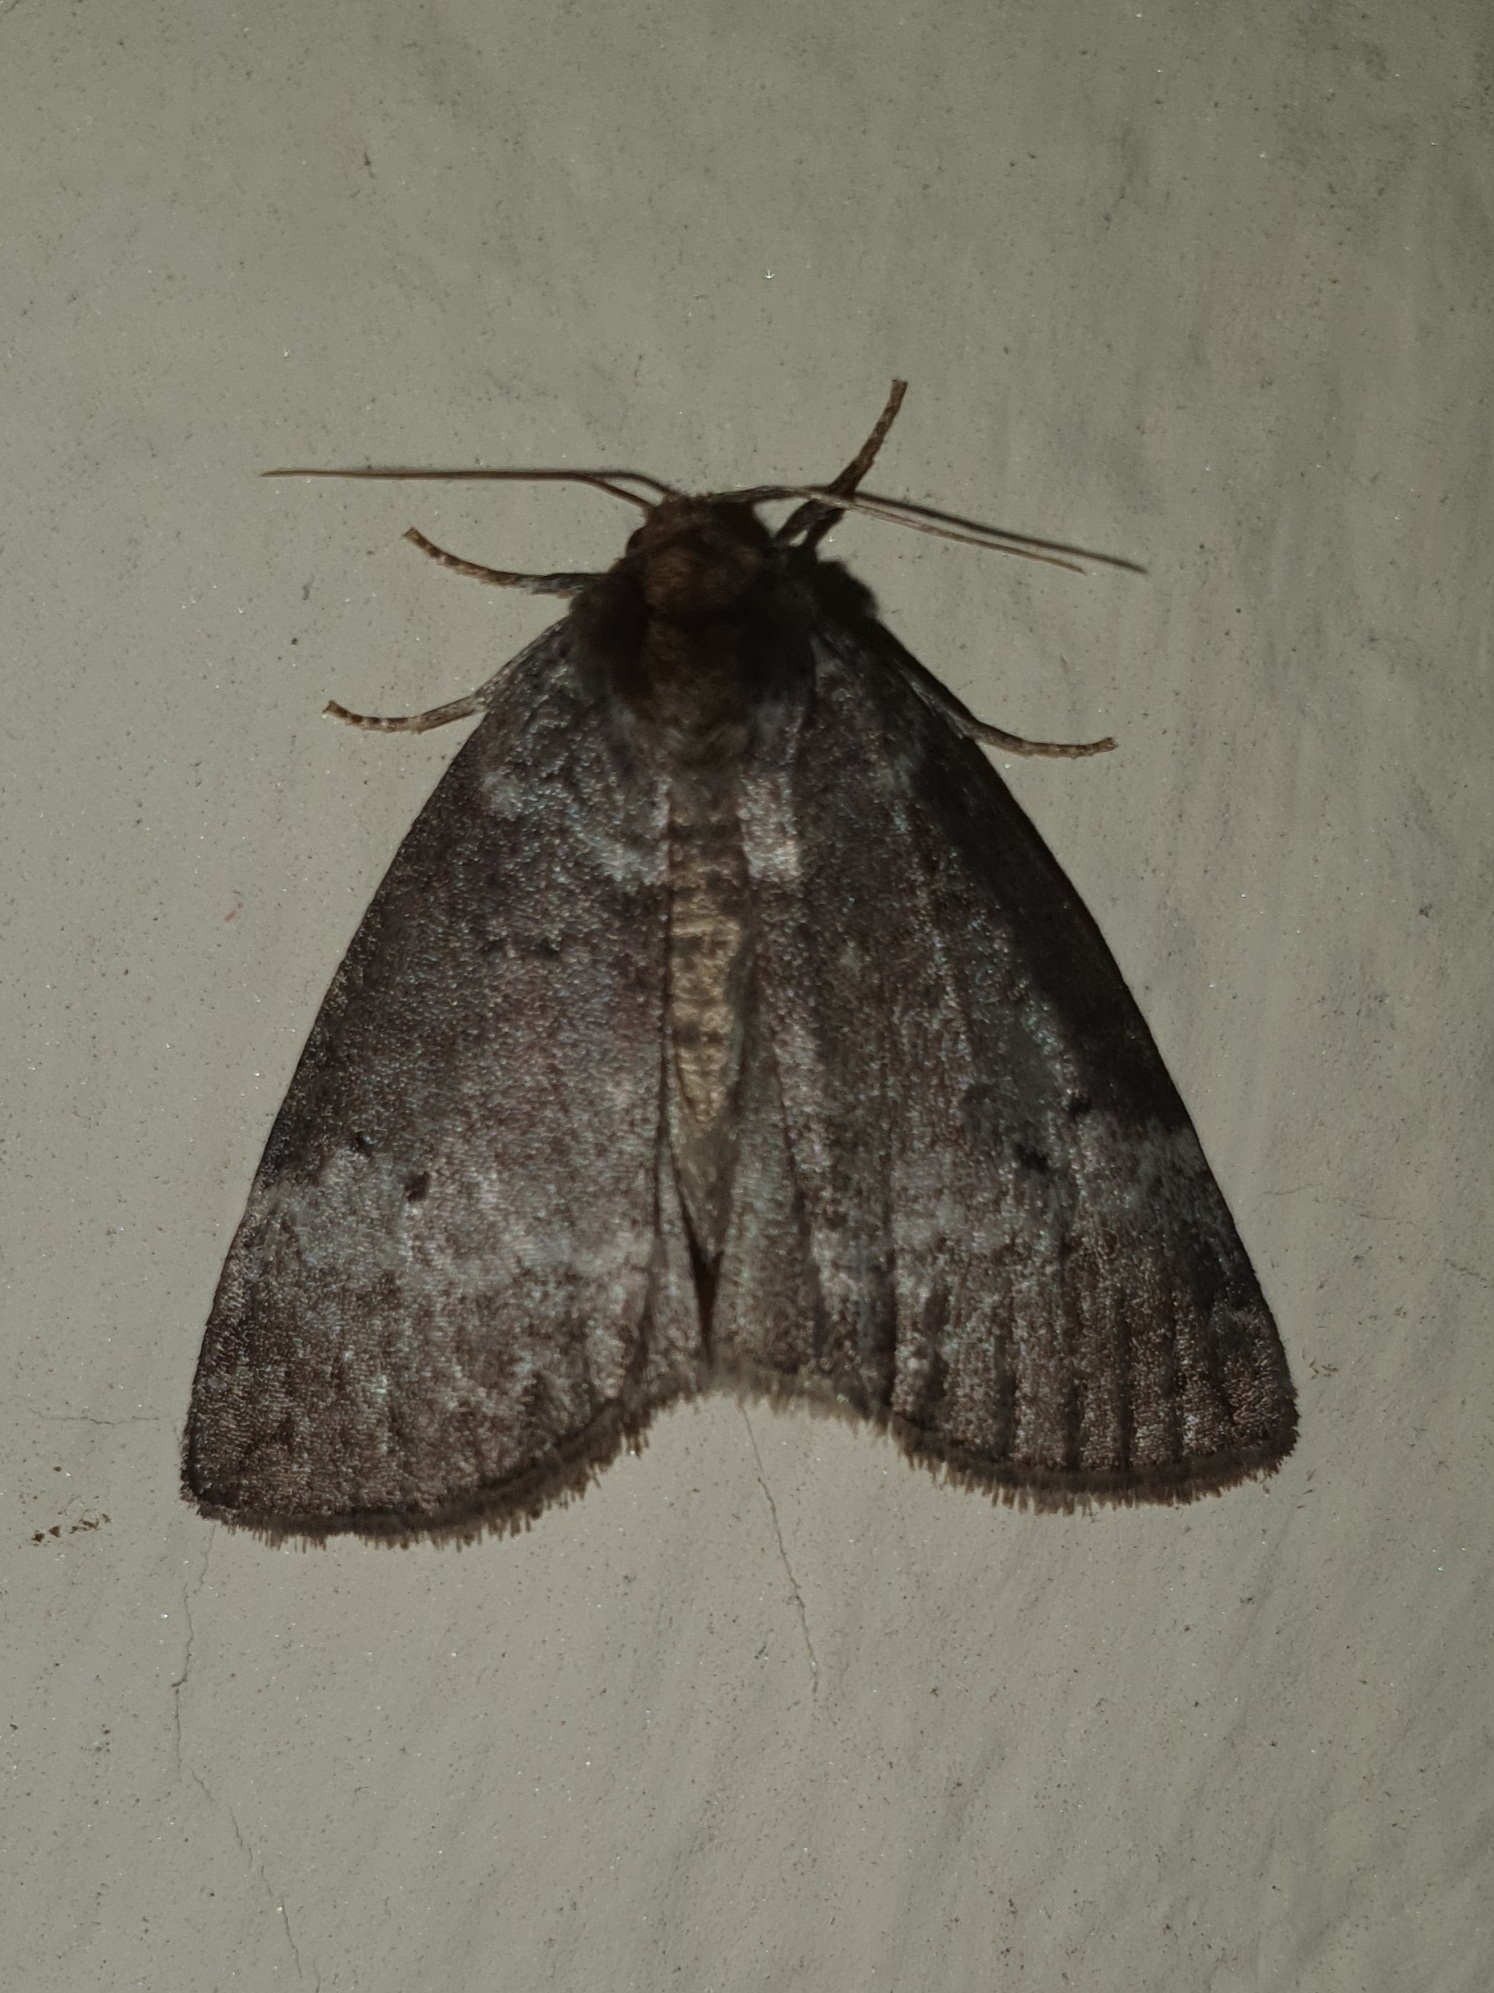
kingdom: Animalia
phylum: Arthropoda
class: Insecta
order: Lepidoptera
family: Drepanidae
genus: Ochropacha
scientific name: Ochropacha duplaris
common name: Common lutestring
